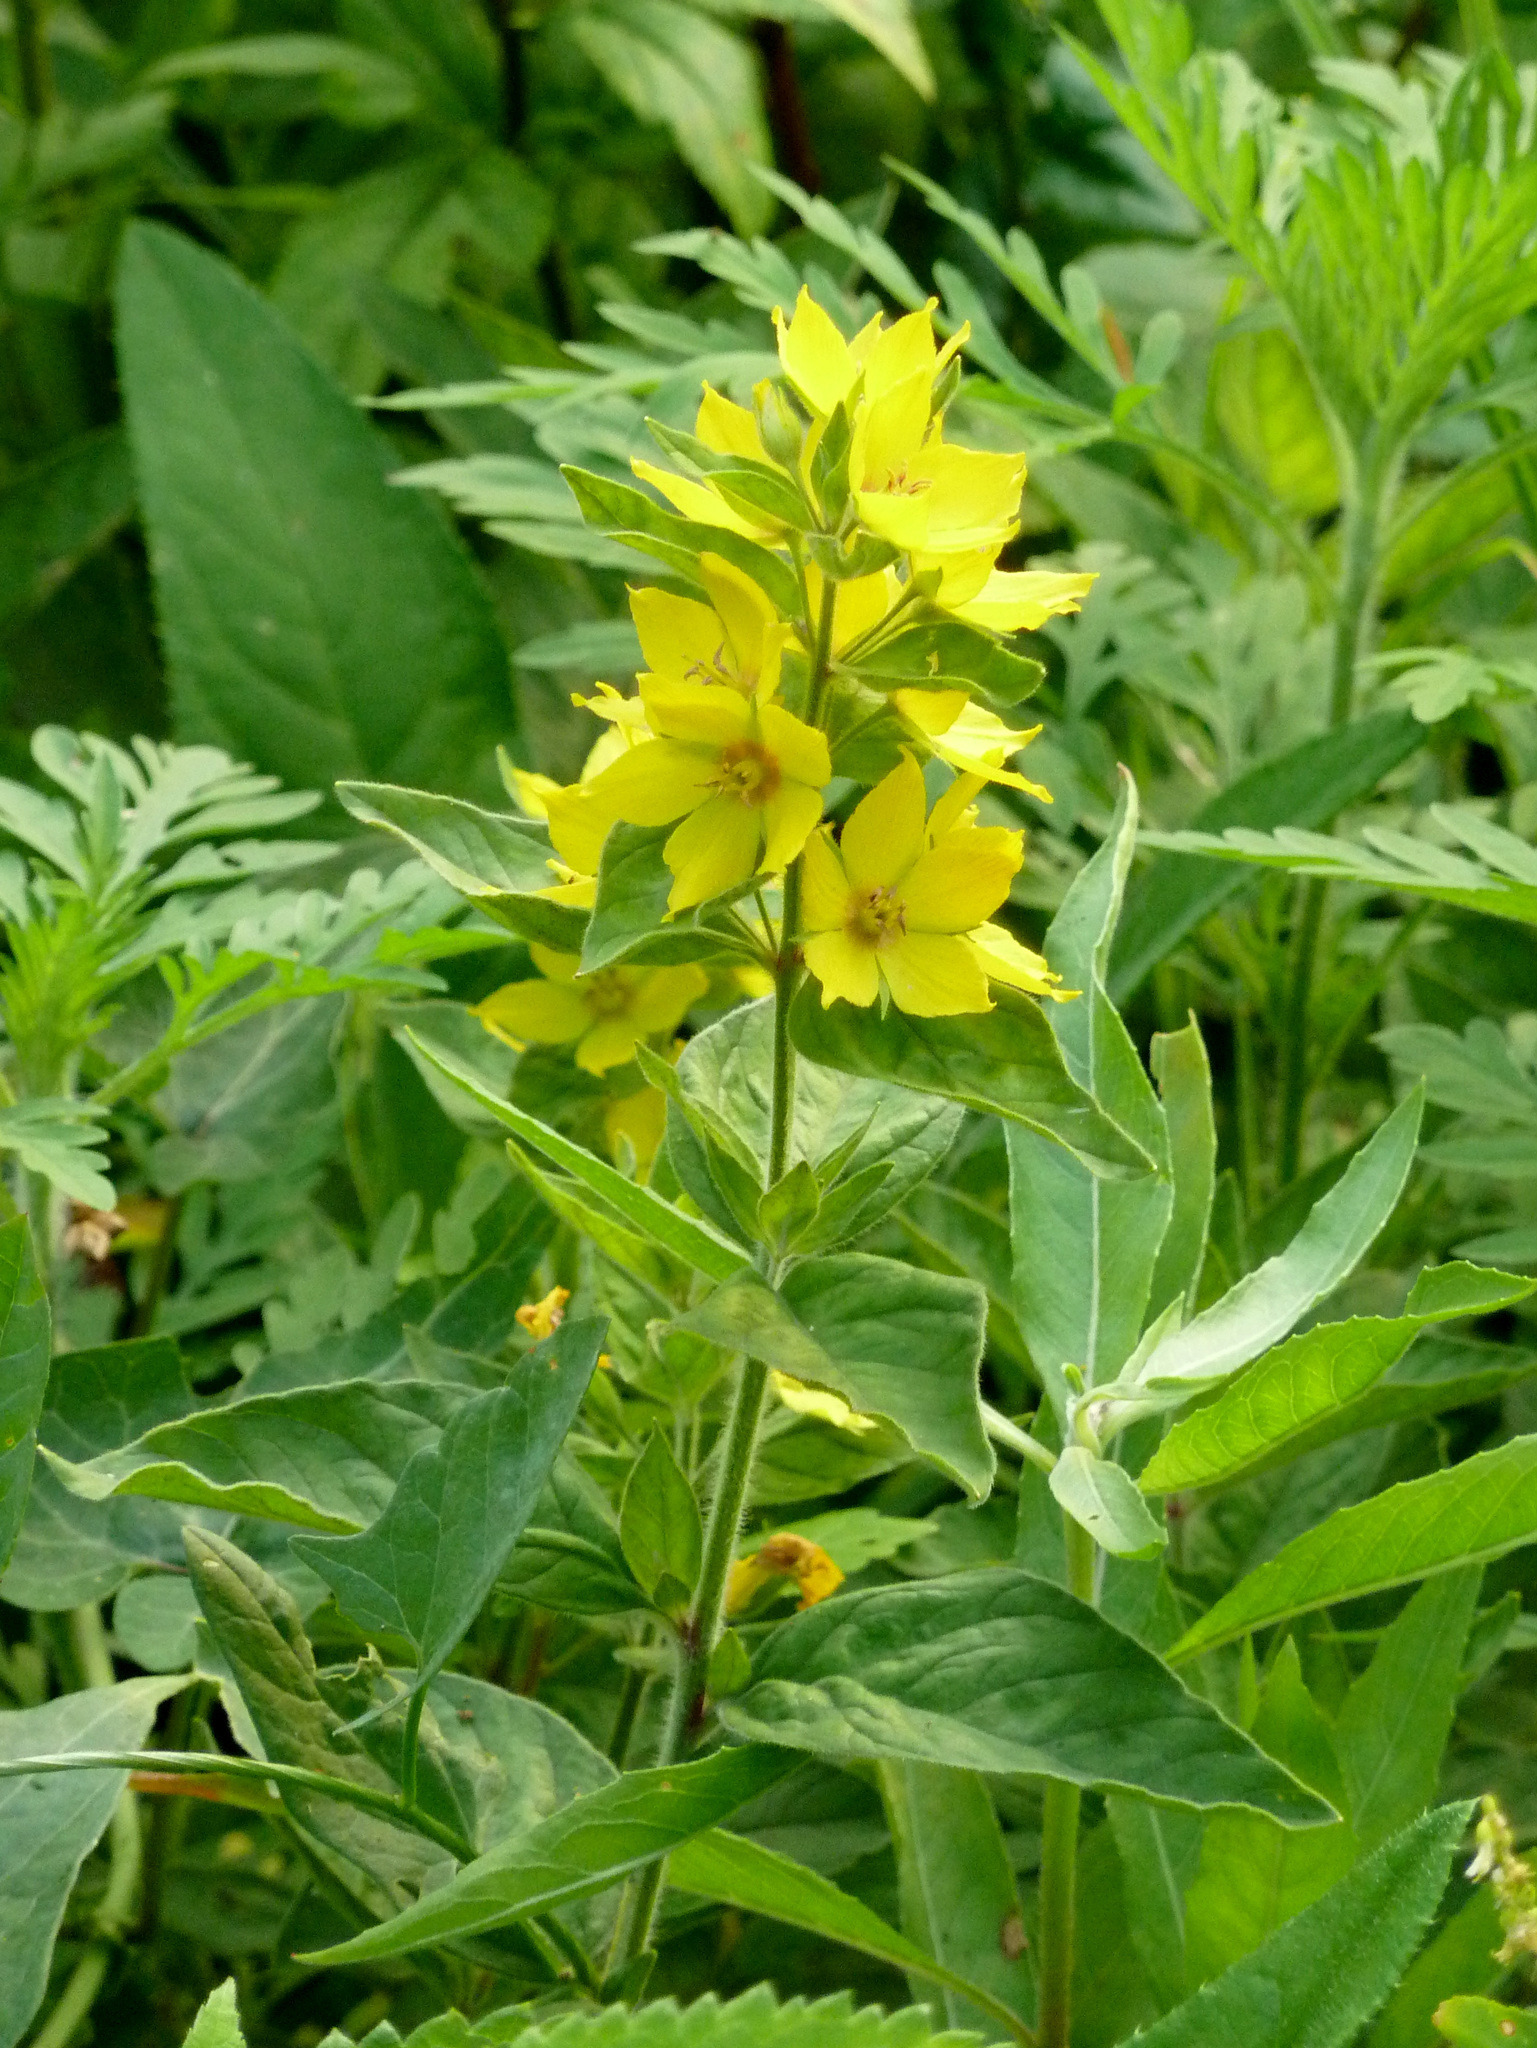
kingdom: Plantae
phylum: Tracheophyta
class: Magnoliopsida
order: Ericales
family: Primulaceae
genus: Lysimachia
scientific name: Lysimachia punctata
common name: Dotted loosestrife
